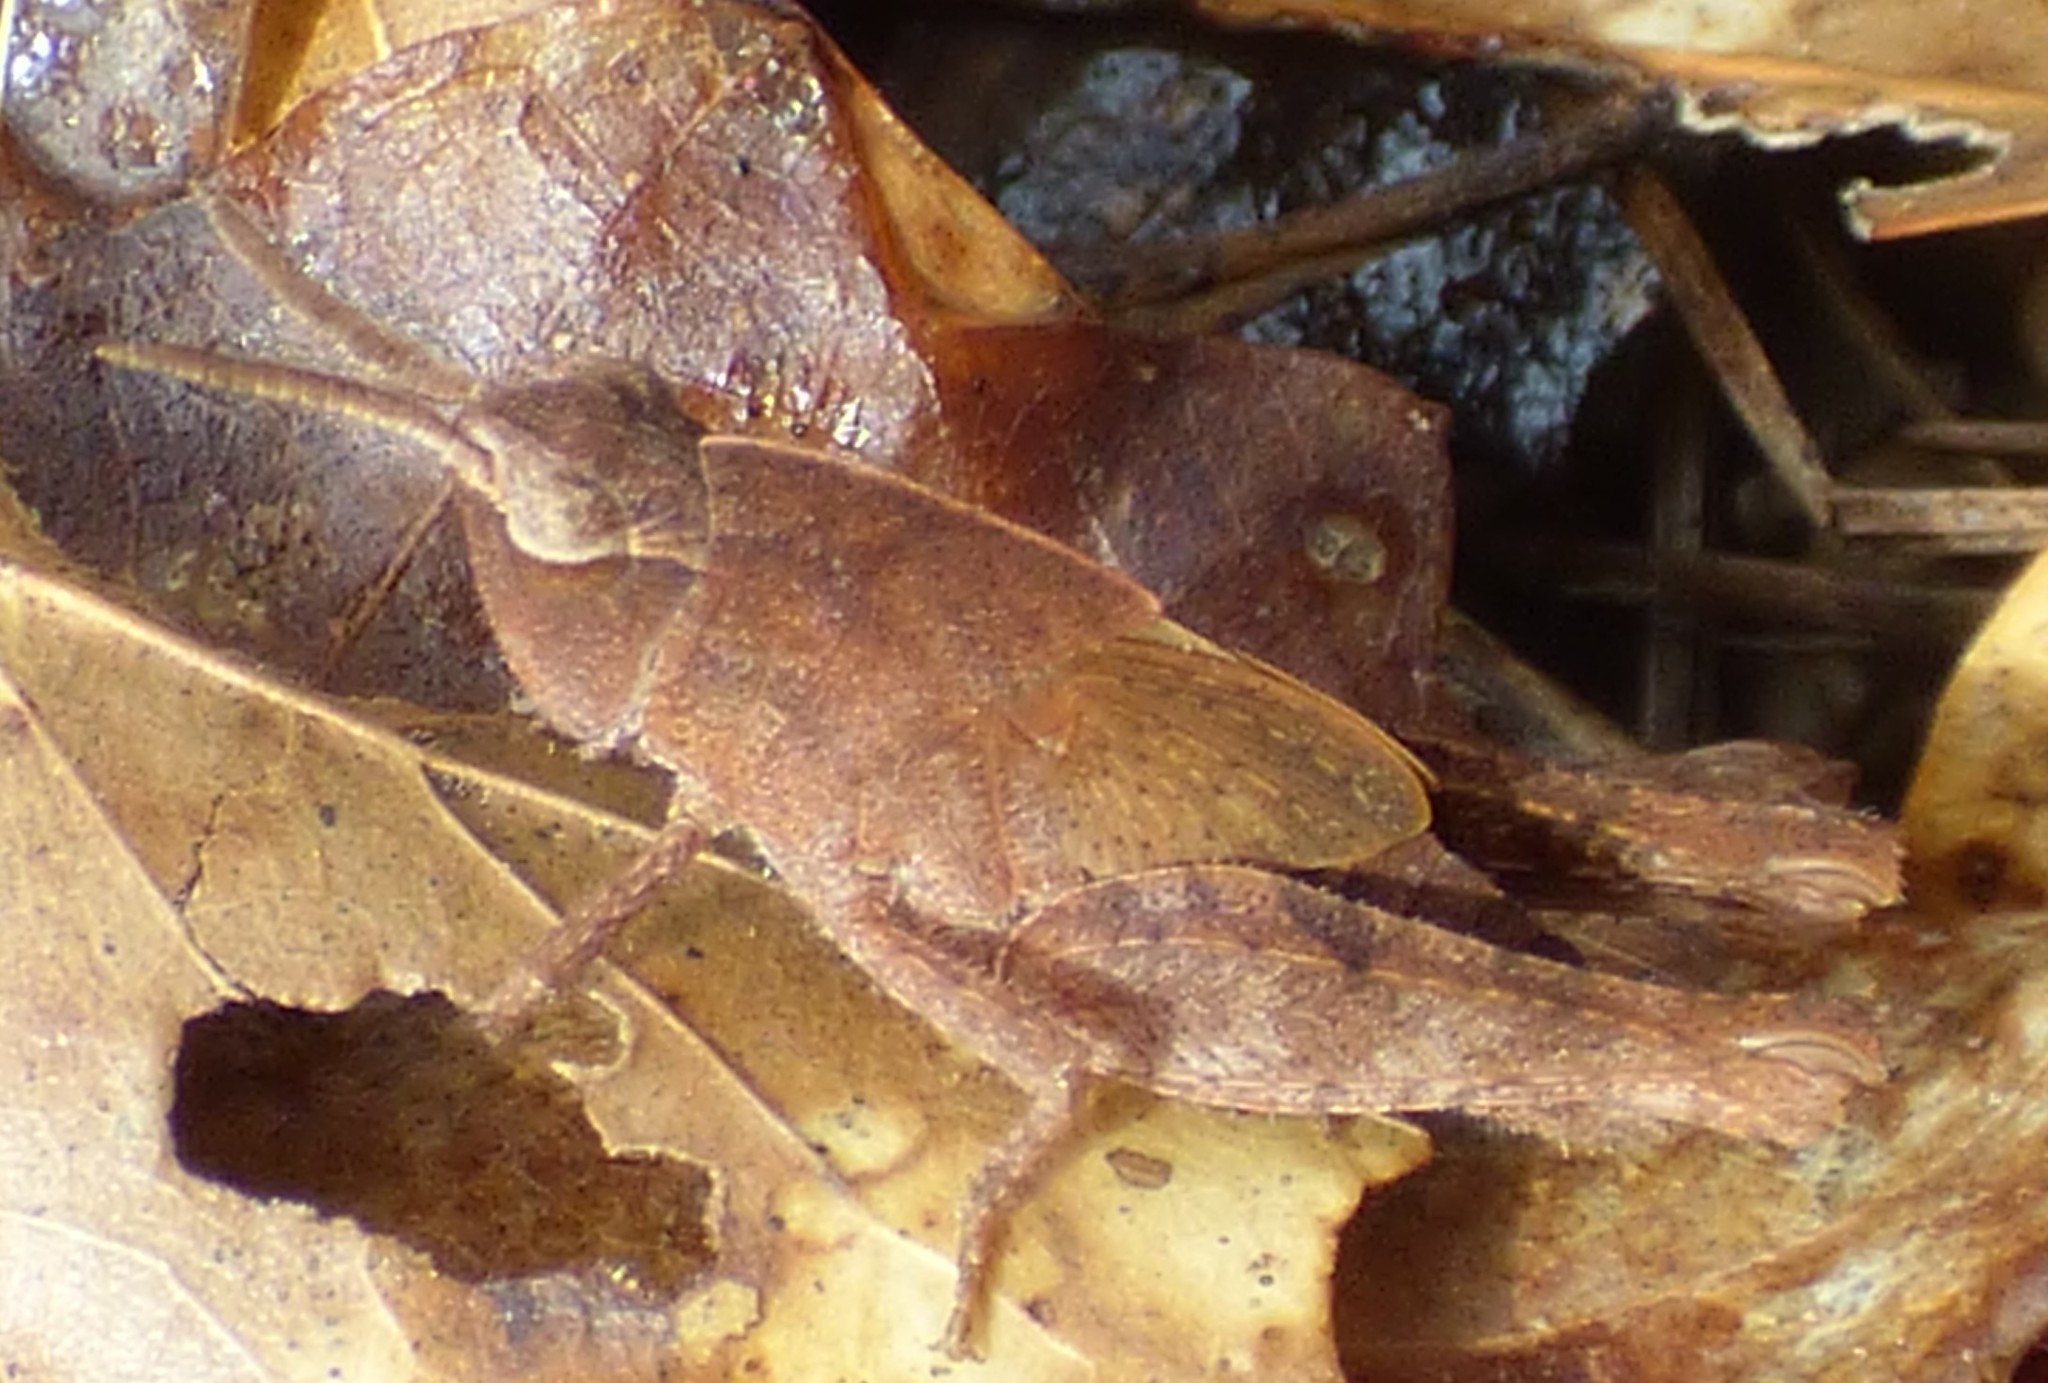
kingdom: Animalia
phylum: Arthropoda
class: Insecta
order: Orthoptera
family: Acrididae
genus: Chortophaga
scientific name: Chortophaga viridifasciata
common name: Green-striped grasshopper
